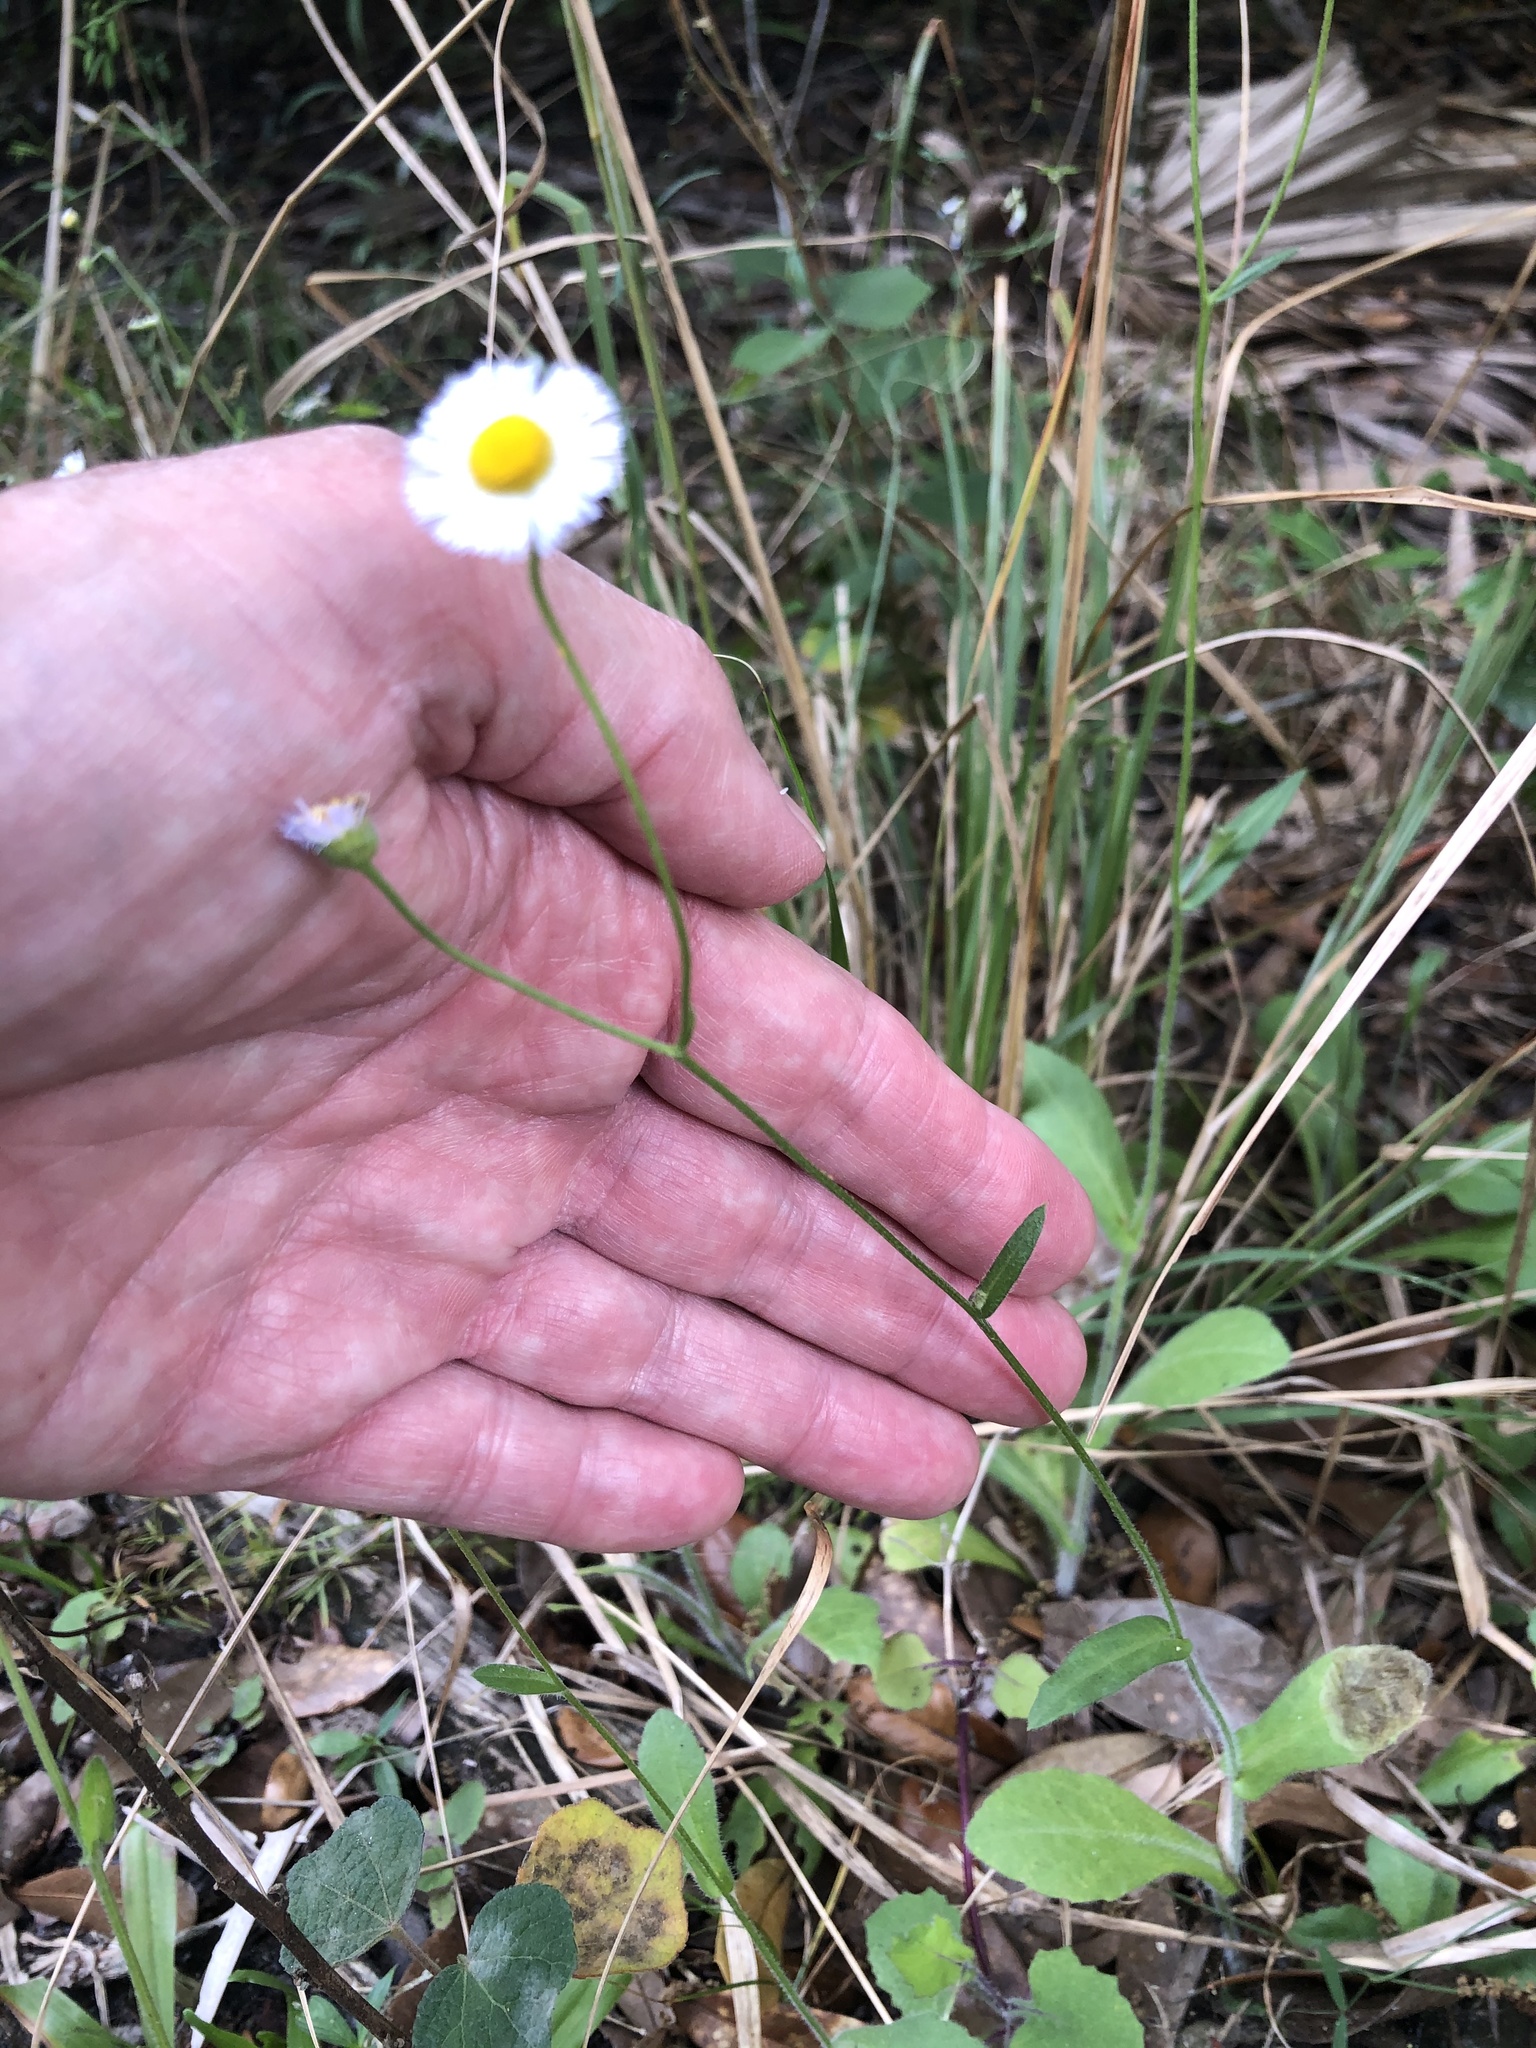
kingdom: Plantae
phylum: Tracheophyta
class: Magnoliopsida
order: Asterales
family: Asteraceae
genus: Erigeron
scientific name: Erigeron quercifolius
